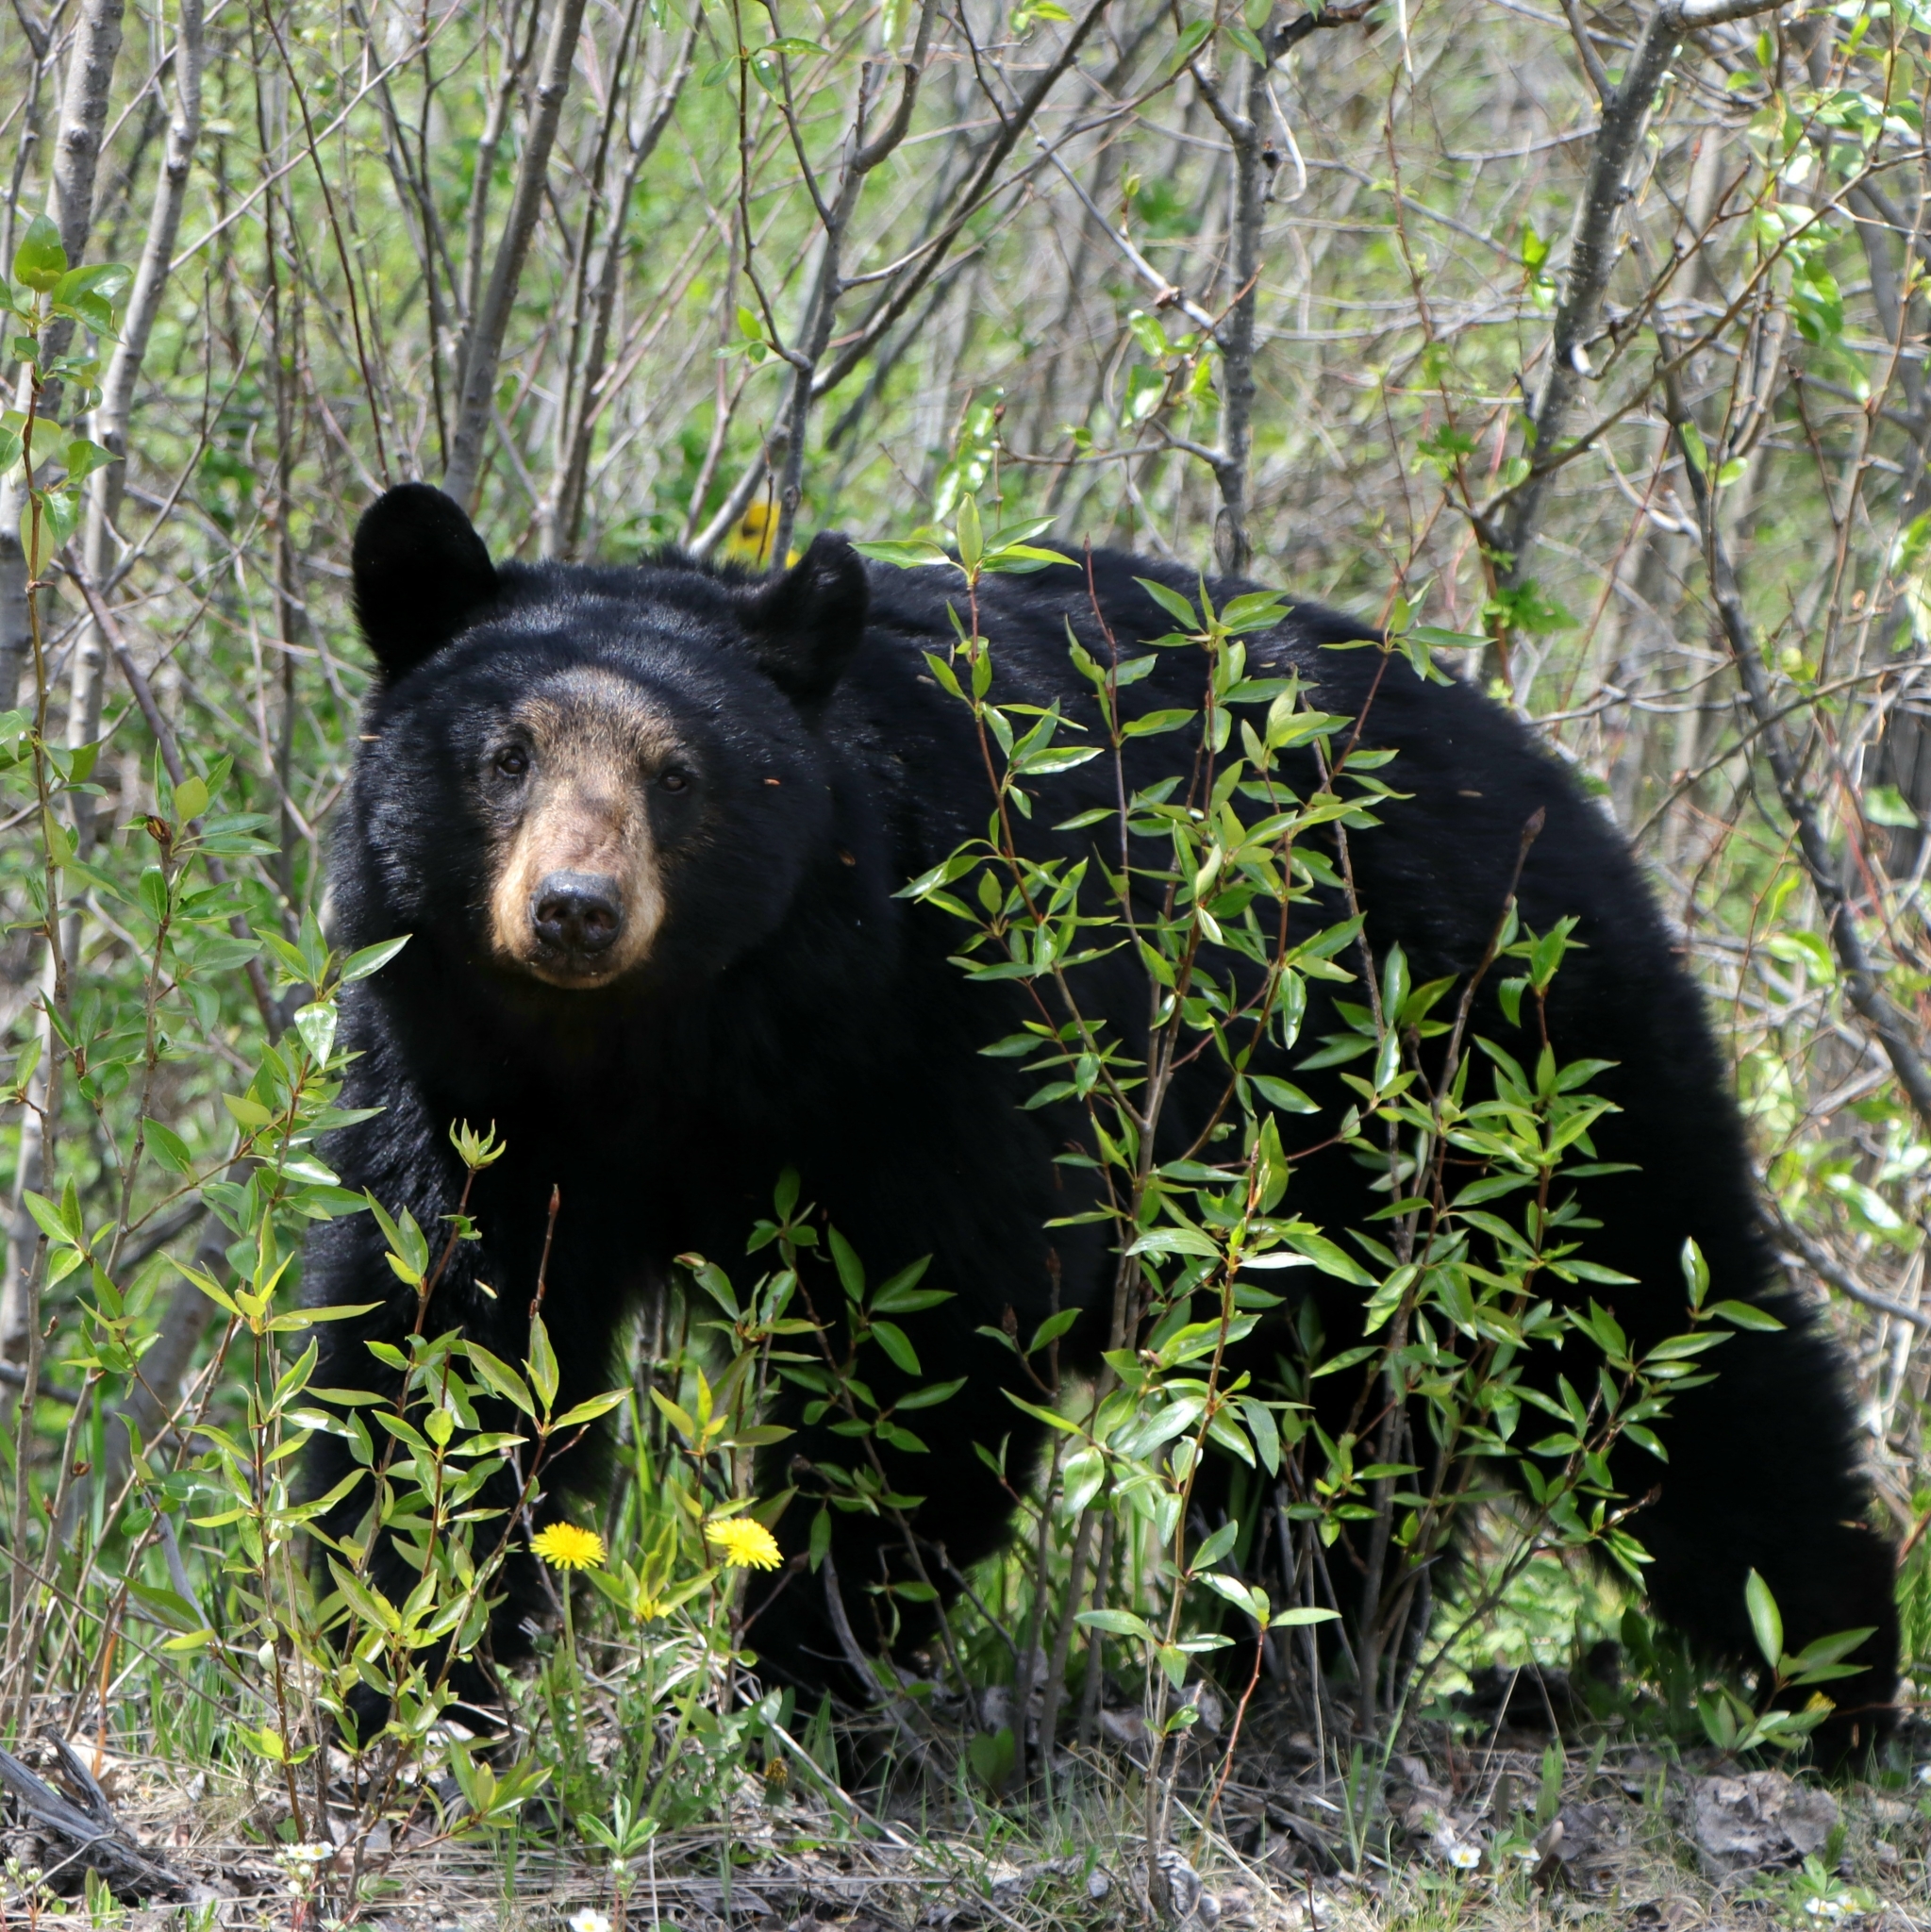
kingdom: Animalia
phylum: Chordata
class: Mammalia
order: Carnivora
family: Ursidae
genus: Ursus
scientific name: Ursus americanus
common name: American black bear
